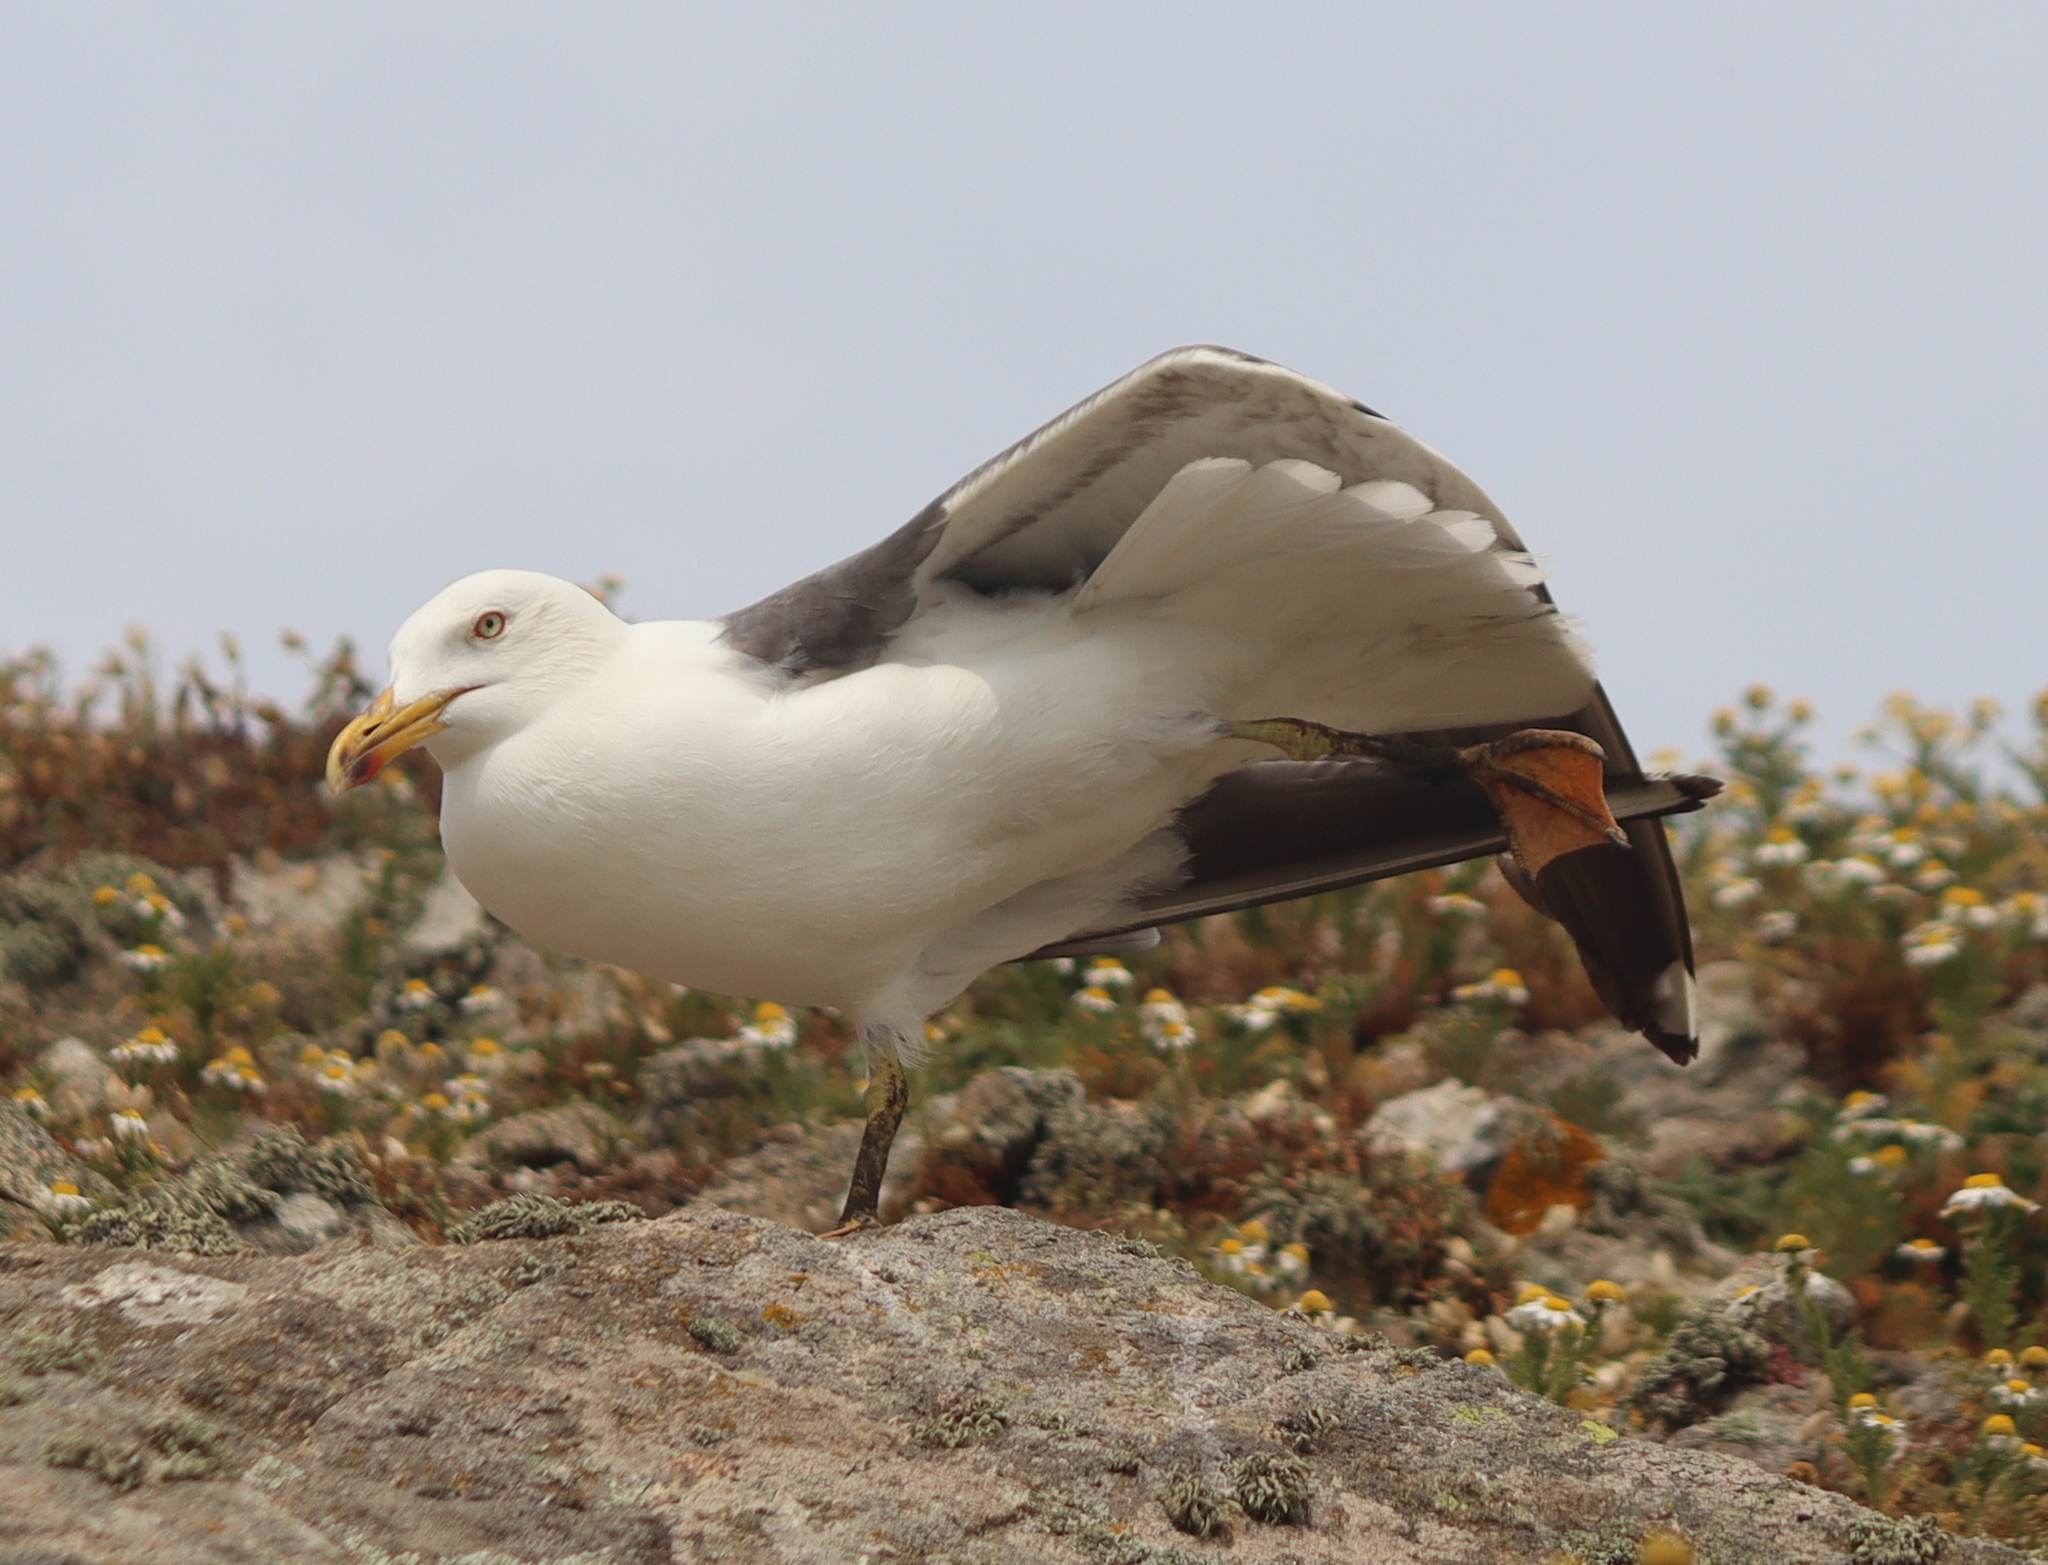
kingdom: Animalia
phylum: Chordata
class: Aves
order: Charadriiformes
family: Laridae
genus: Larus
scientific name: Larus fuscus
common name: Lesser black-backed gull
